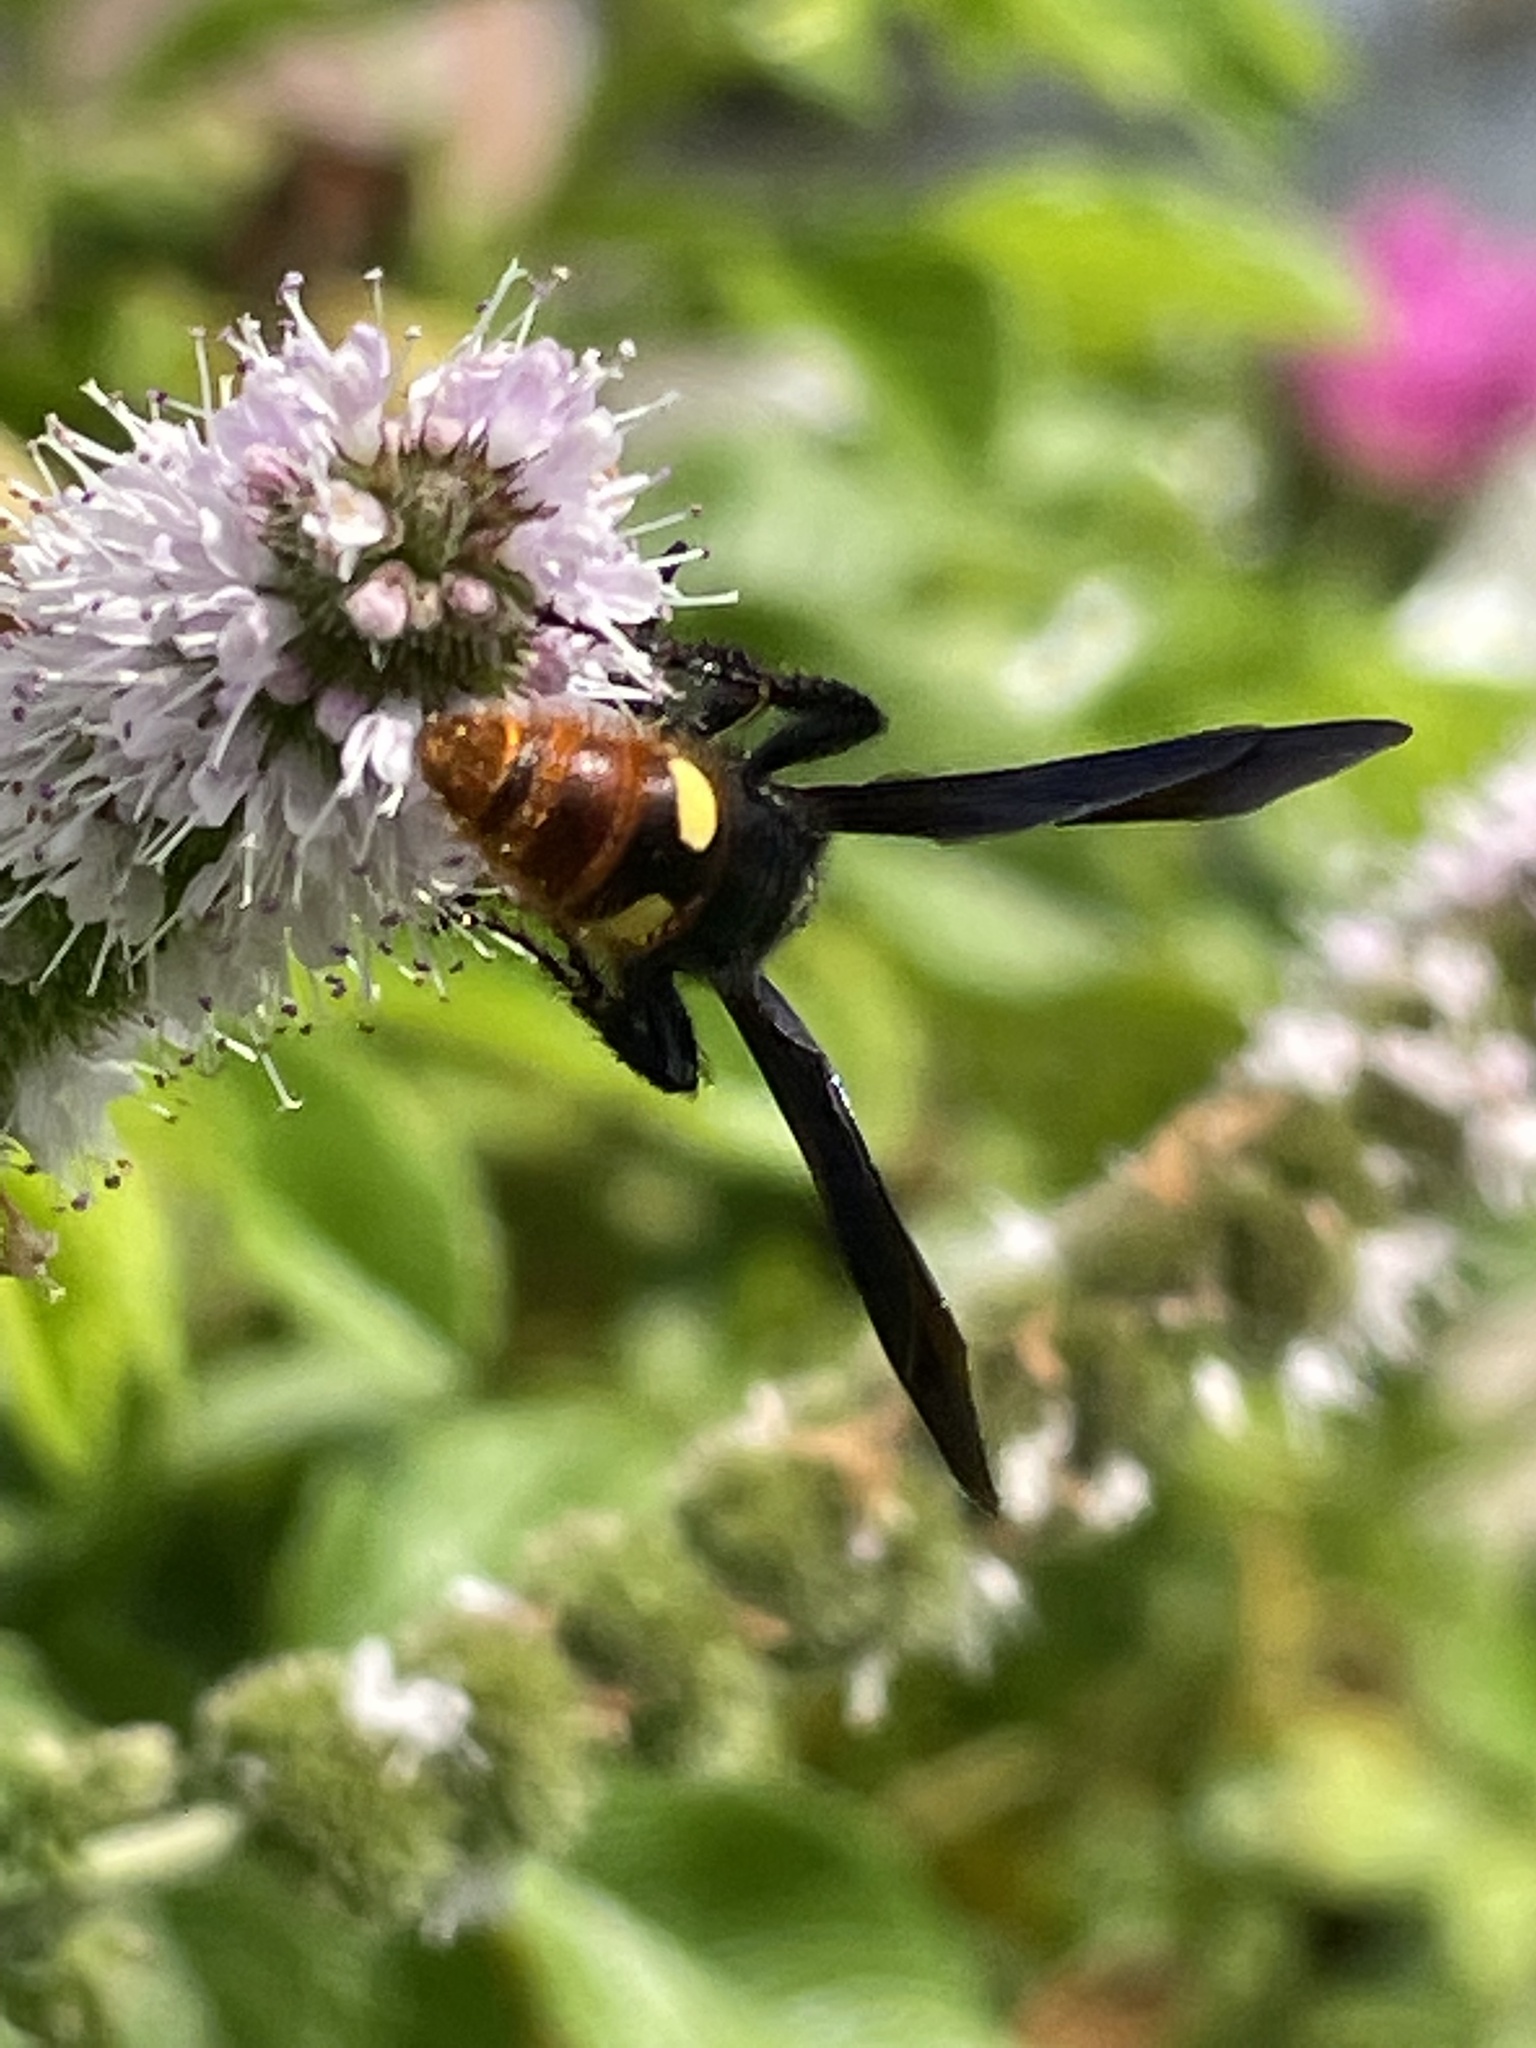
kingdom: Animalia
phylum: Arthropoda
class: Insecta
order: Hymenoptera
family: Scoliidae
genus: Scolia
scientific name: Scolia dubia
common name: Blue-winged scoliid wasp
